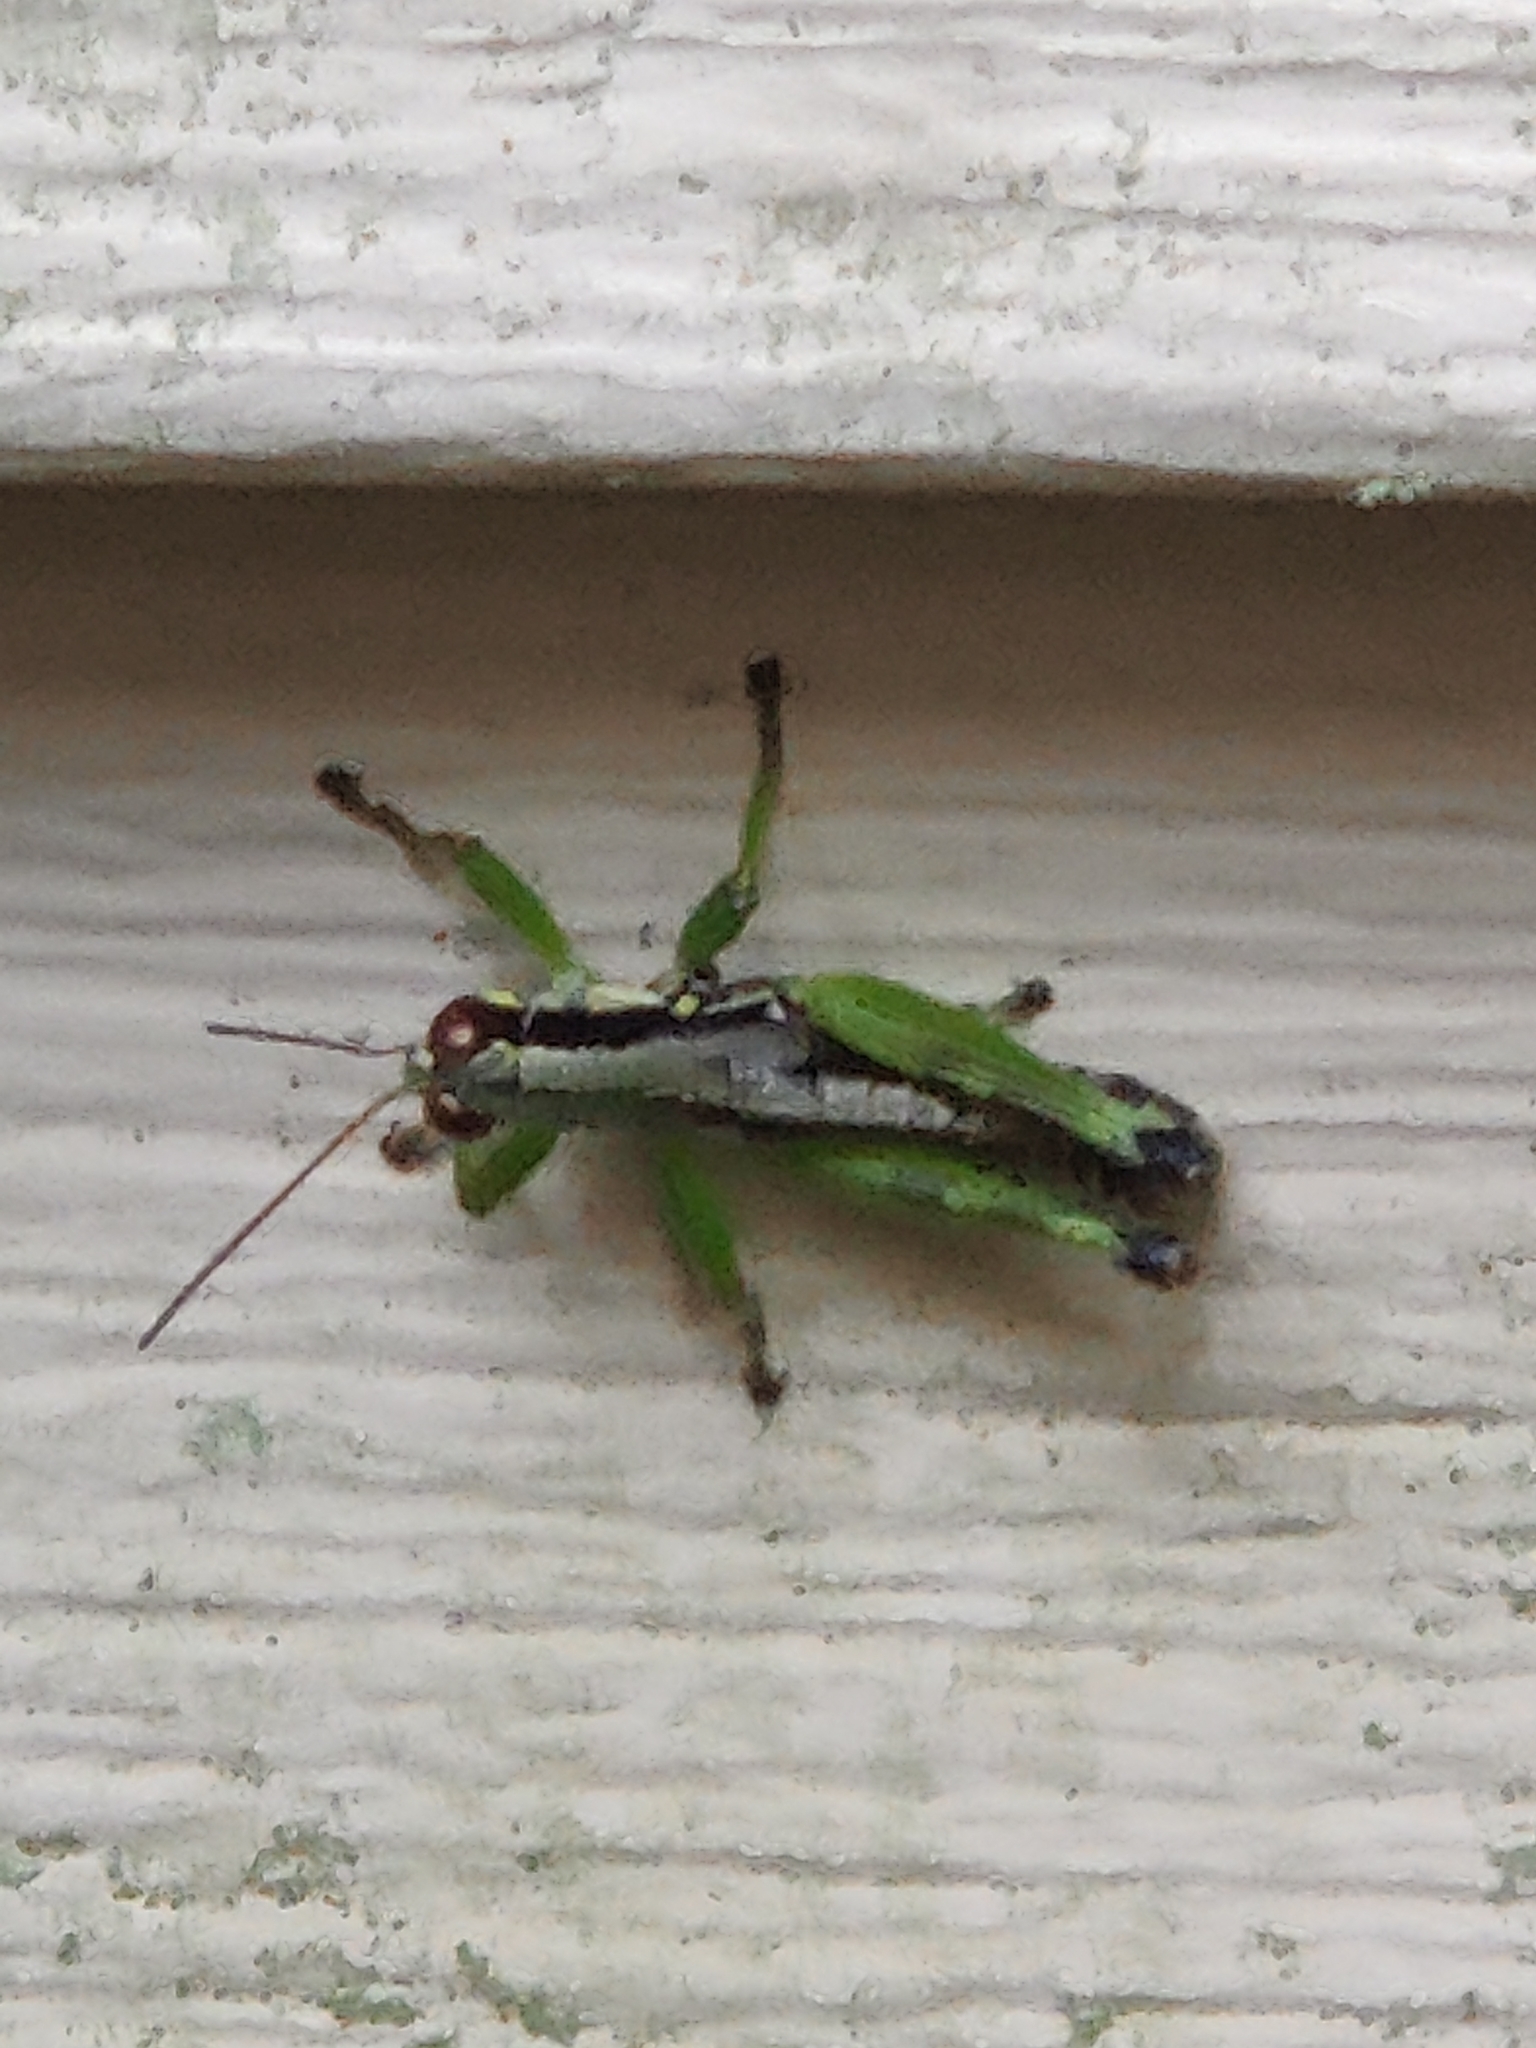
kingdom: Animalia
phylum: Arthropoda
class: Insecta
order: Orthoptera
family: Acrididae
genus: Melanoplus
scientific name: Melanoplus gracilis
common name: Graceful narrow-winged locust
